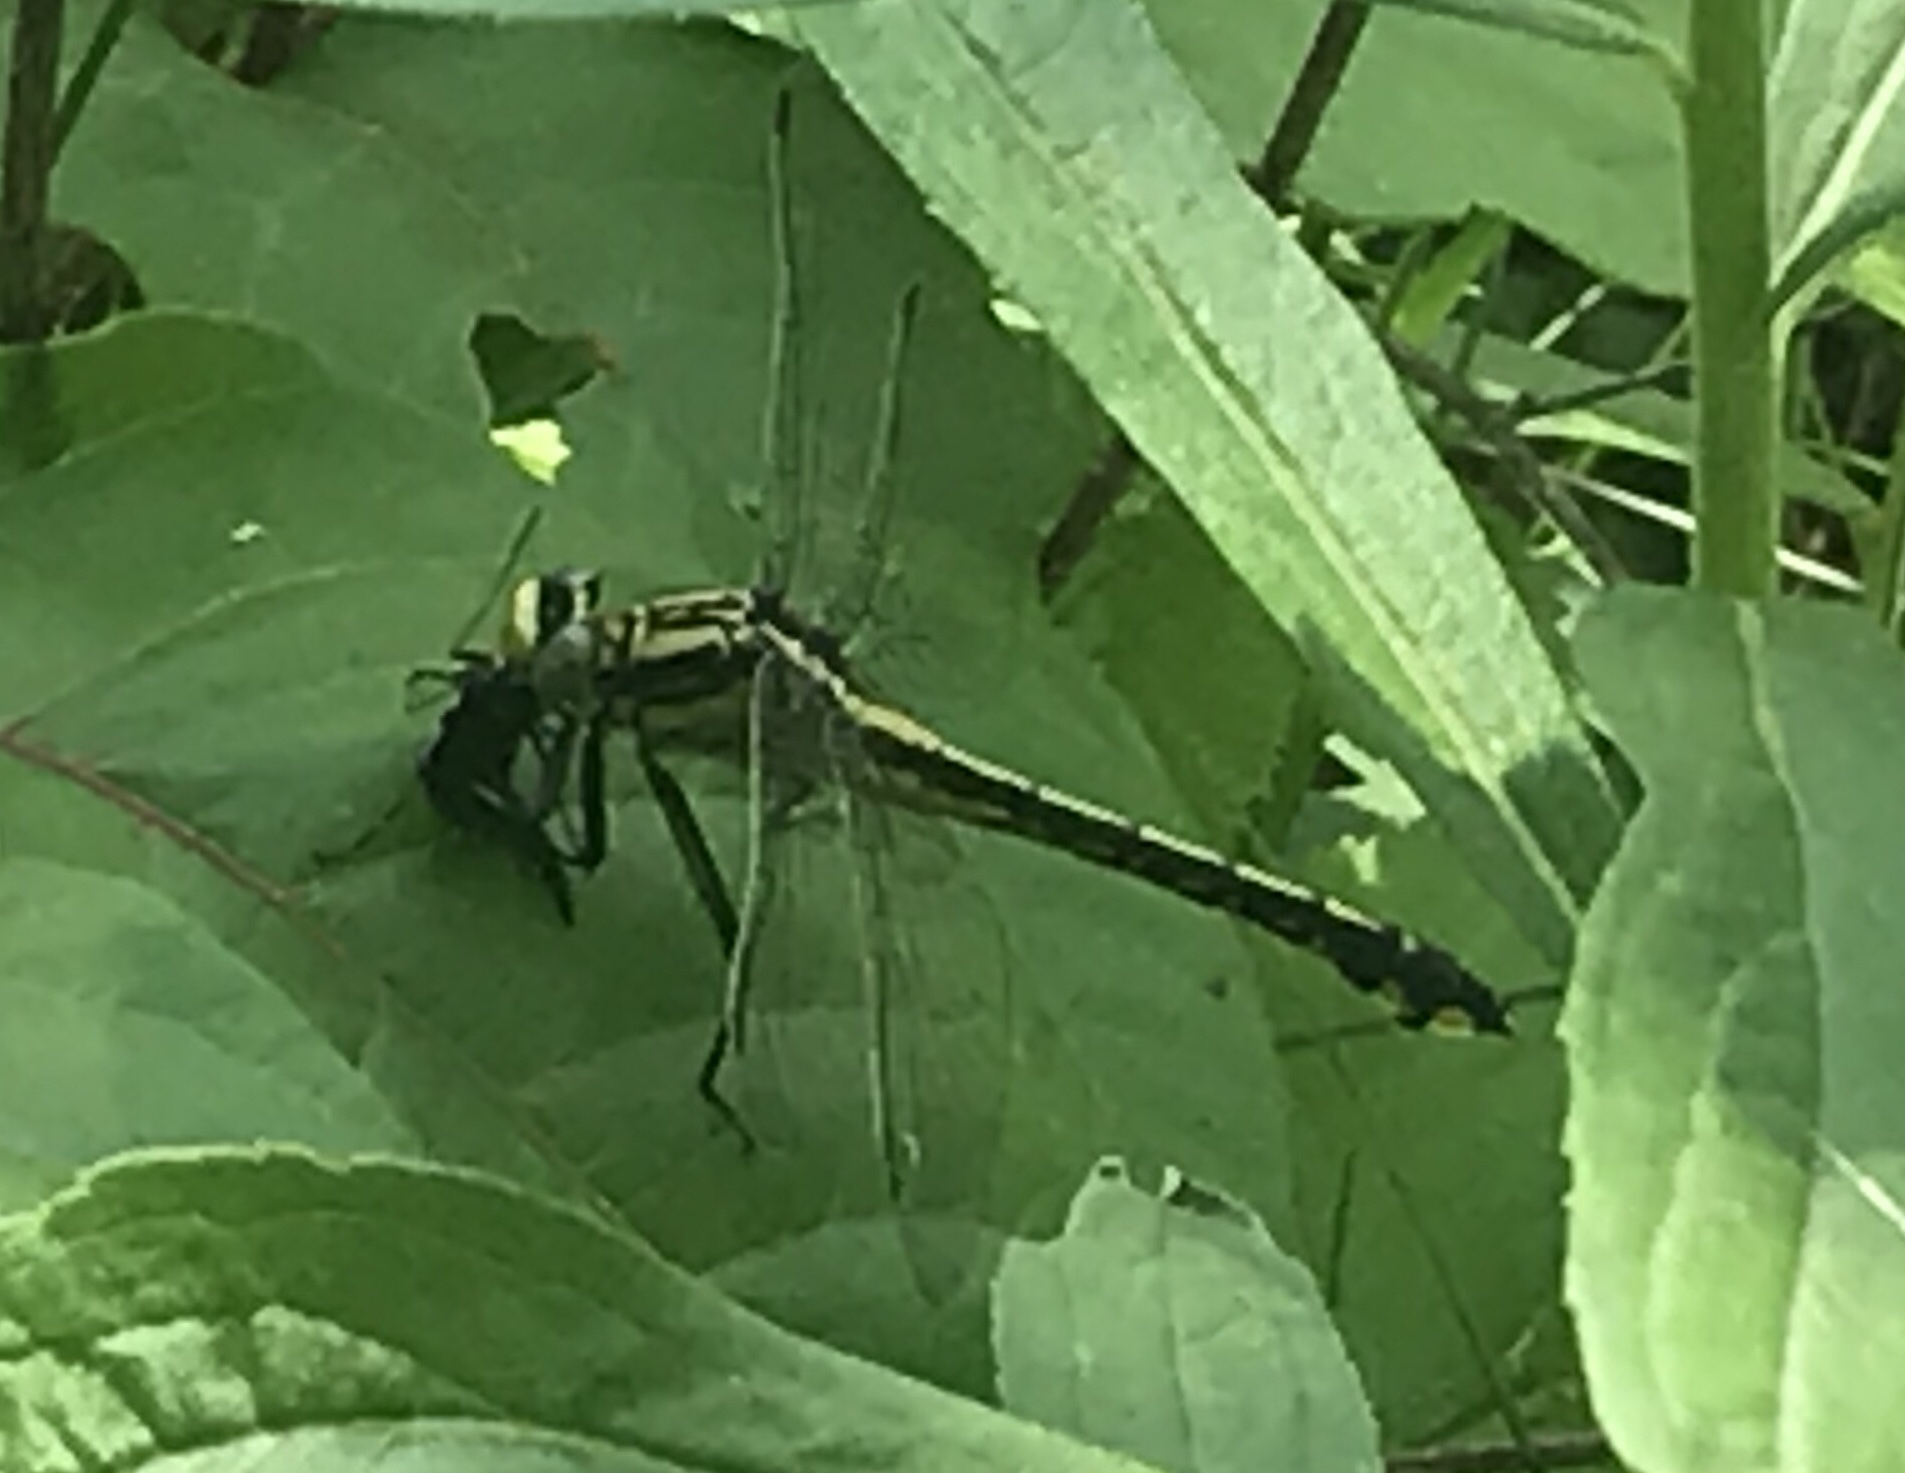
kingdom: Animalia
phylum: Arthropoda
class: Insecta
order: Odonata
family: Gomphidae
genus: Gomphurus
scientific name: Gomphurus fraternus
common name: Midland clubtail
